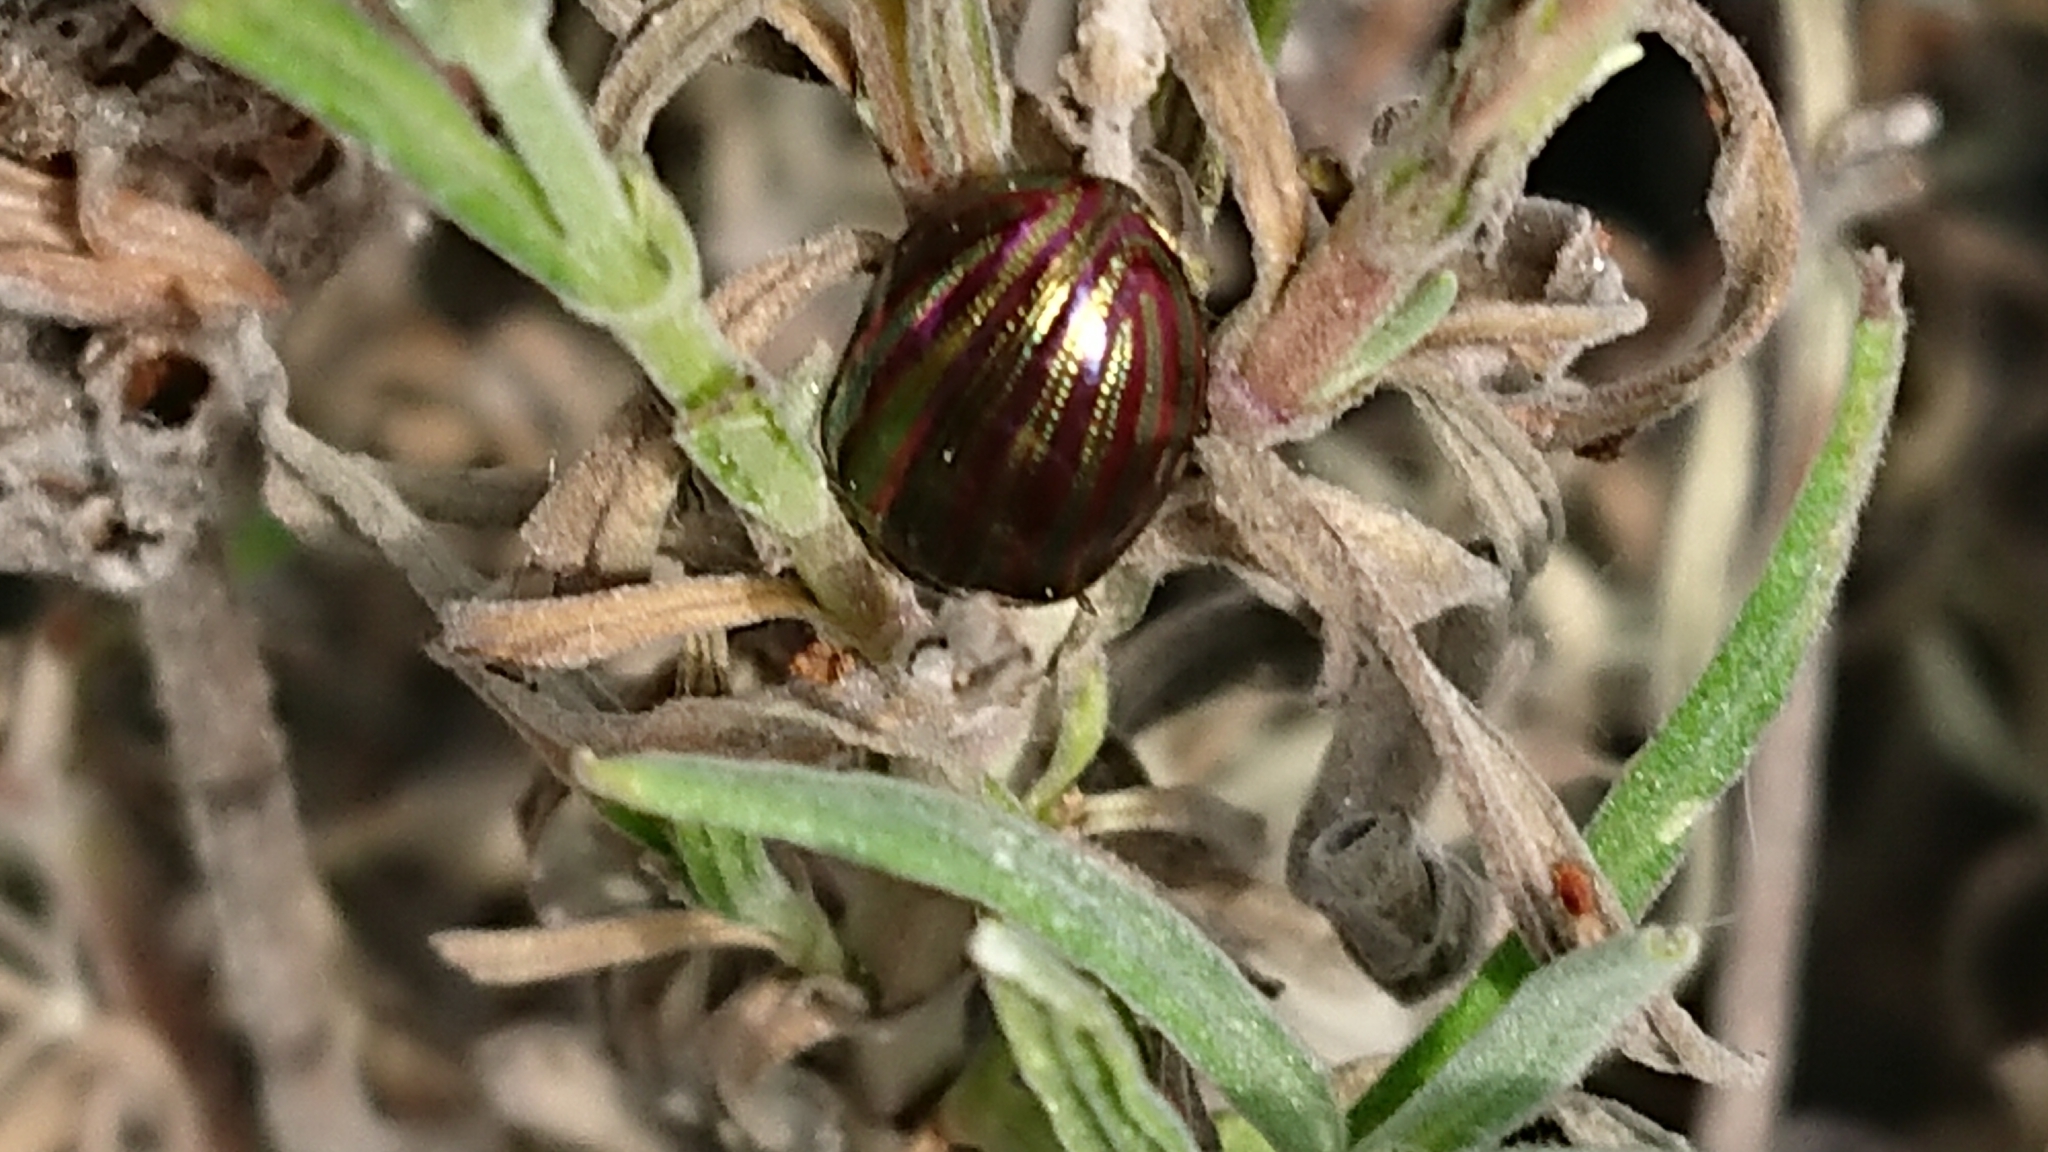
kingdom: Animalia
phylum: Arthropoda
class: Insecta
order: Coleoptera
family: Chrysomelidae
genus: Chrysolina
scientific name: Chrysolina americana
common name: Rosemary beetle
